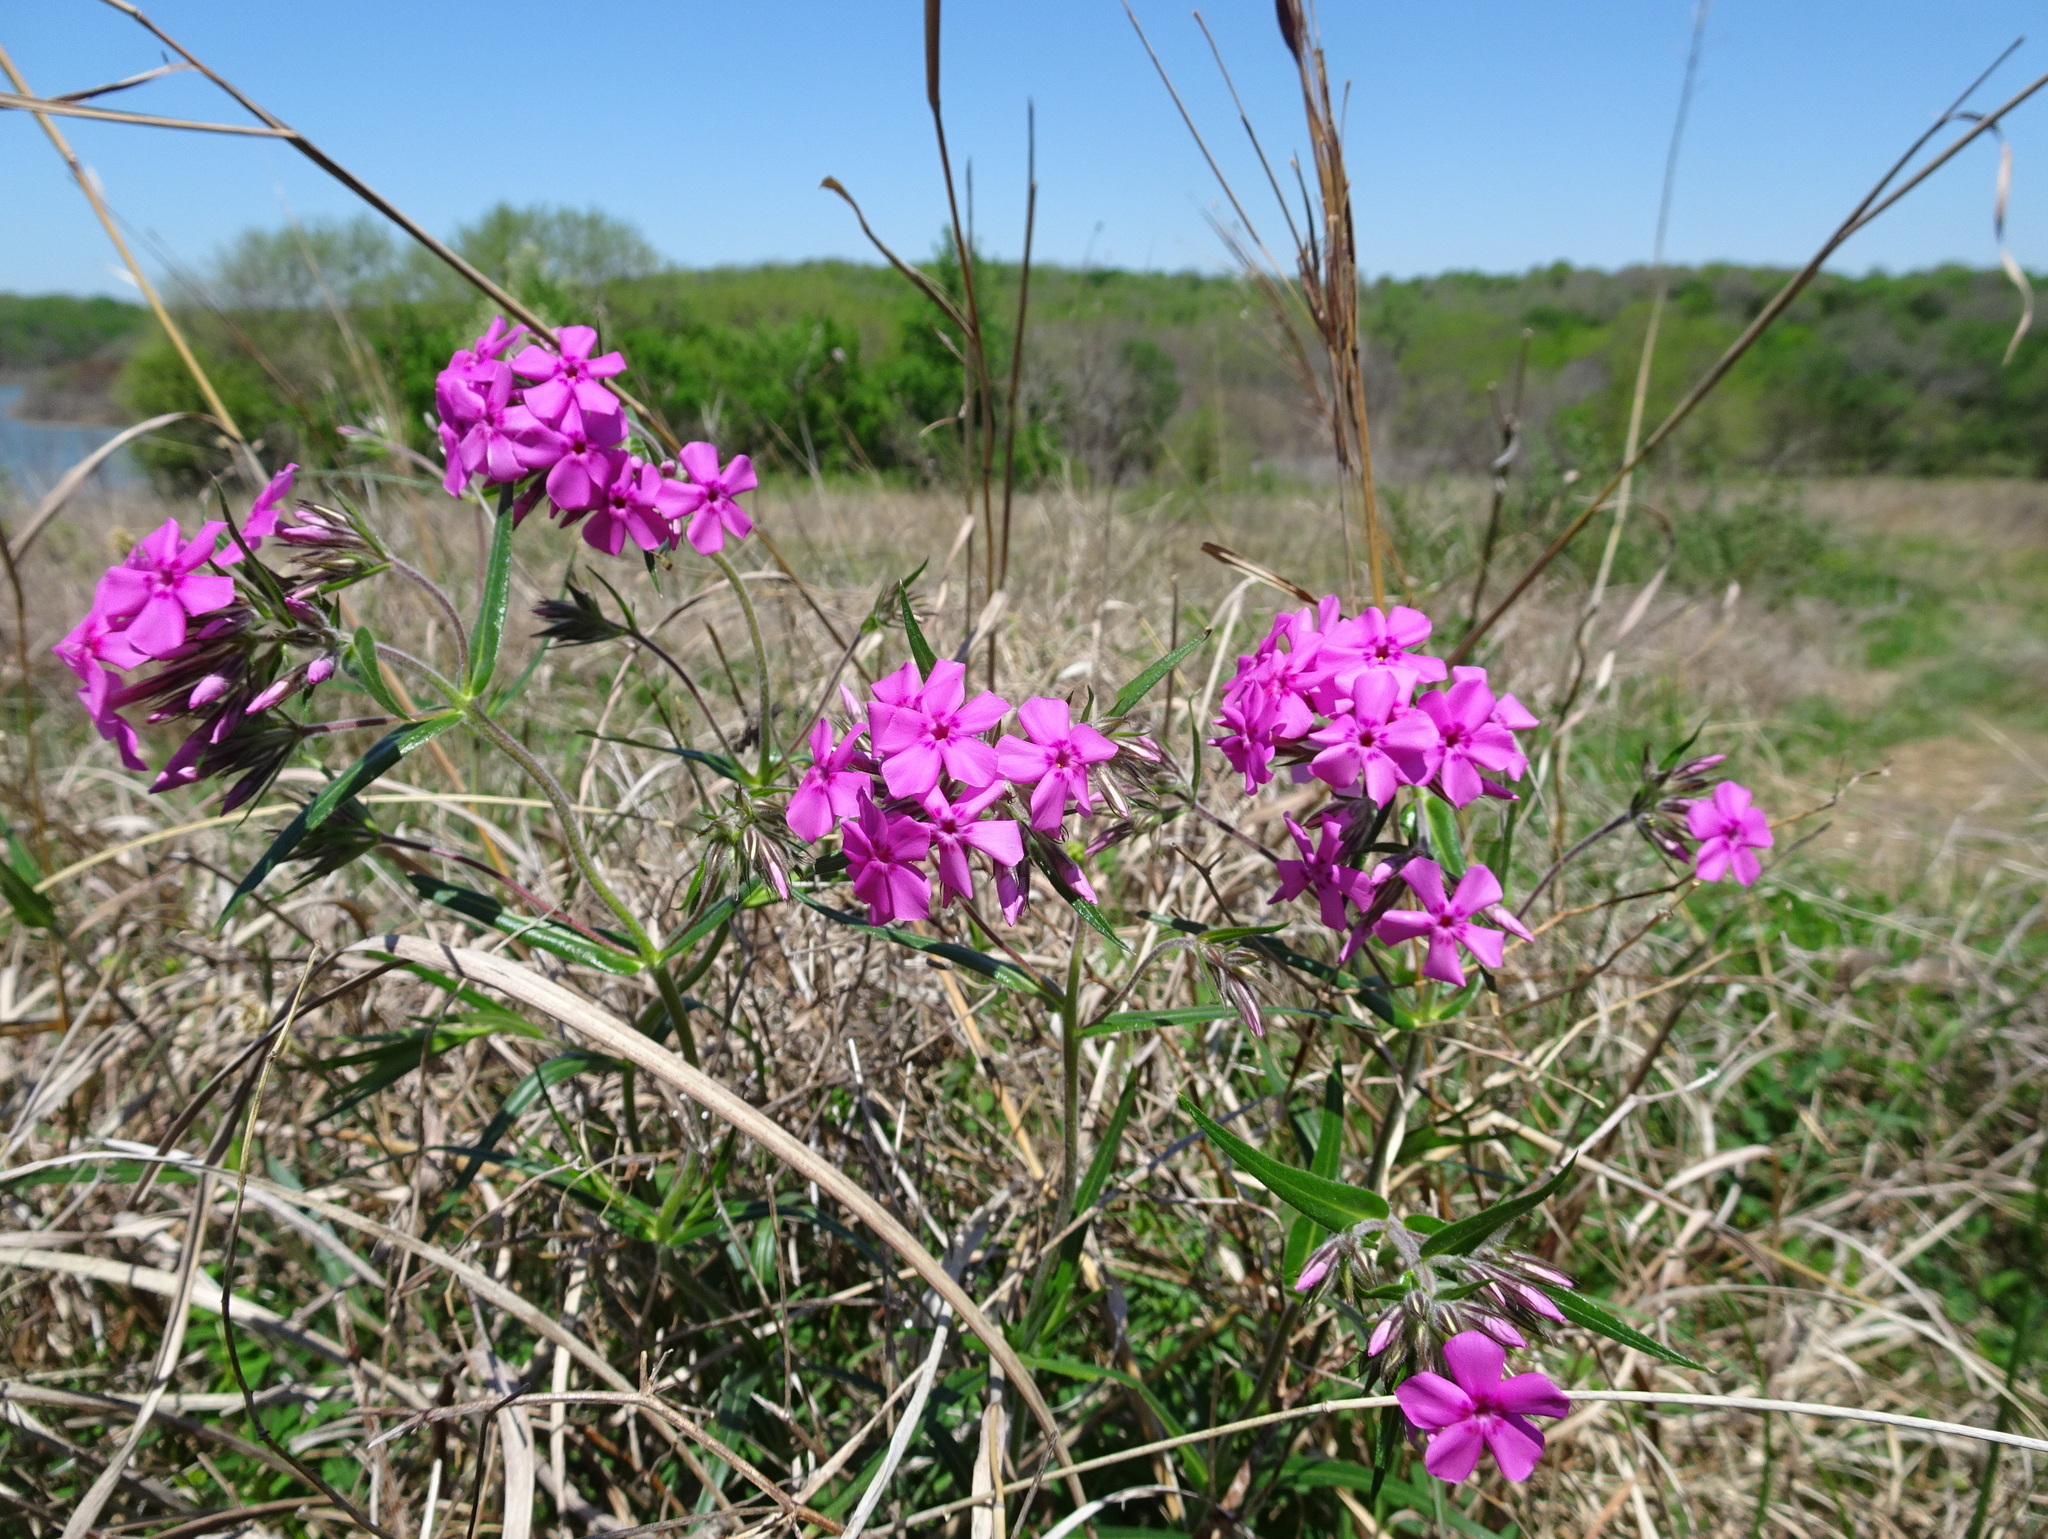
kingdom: Plantae
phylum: Tracheophyta
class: Magnoliopsida
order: Ericales
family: Polemoniaceae
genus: Phlox
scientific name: Phlox pilosa
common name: Prairie phlox
